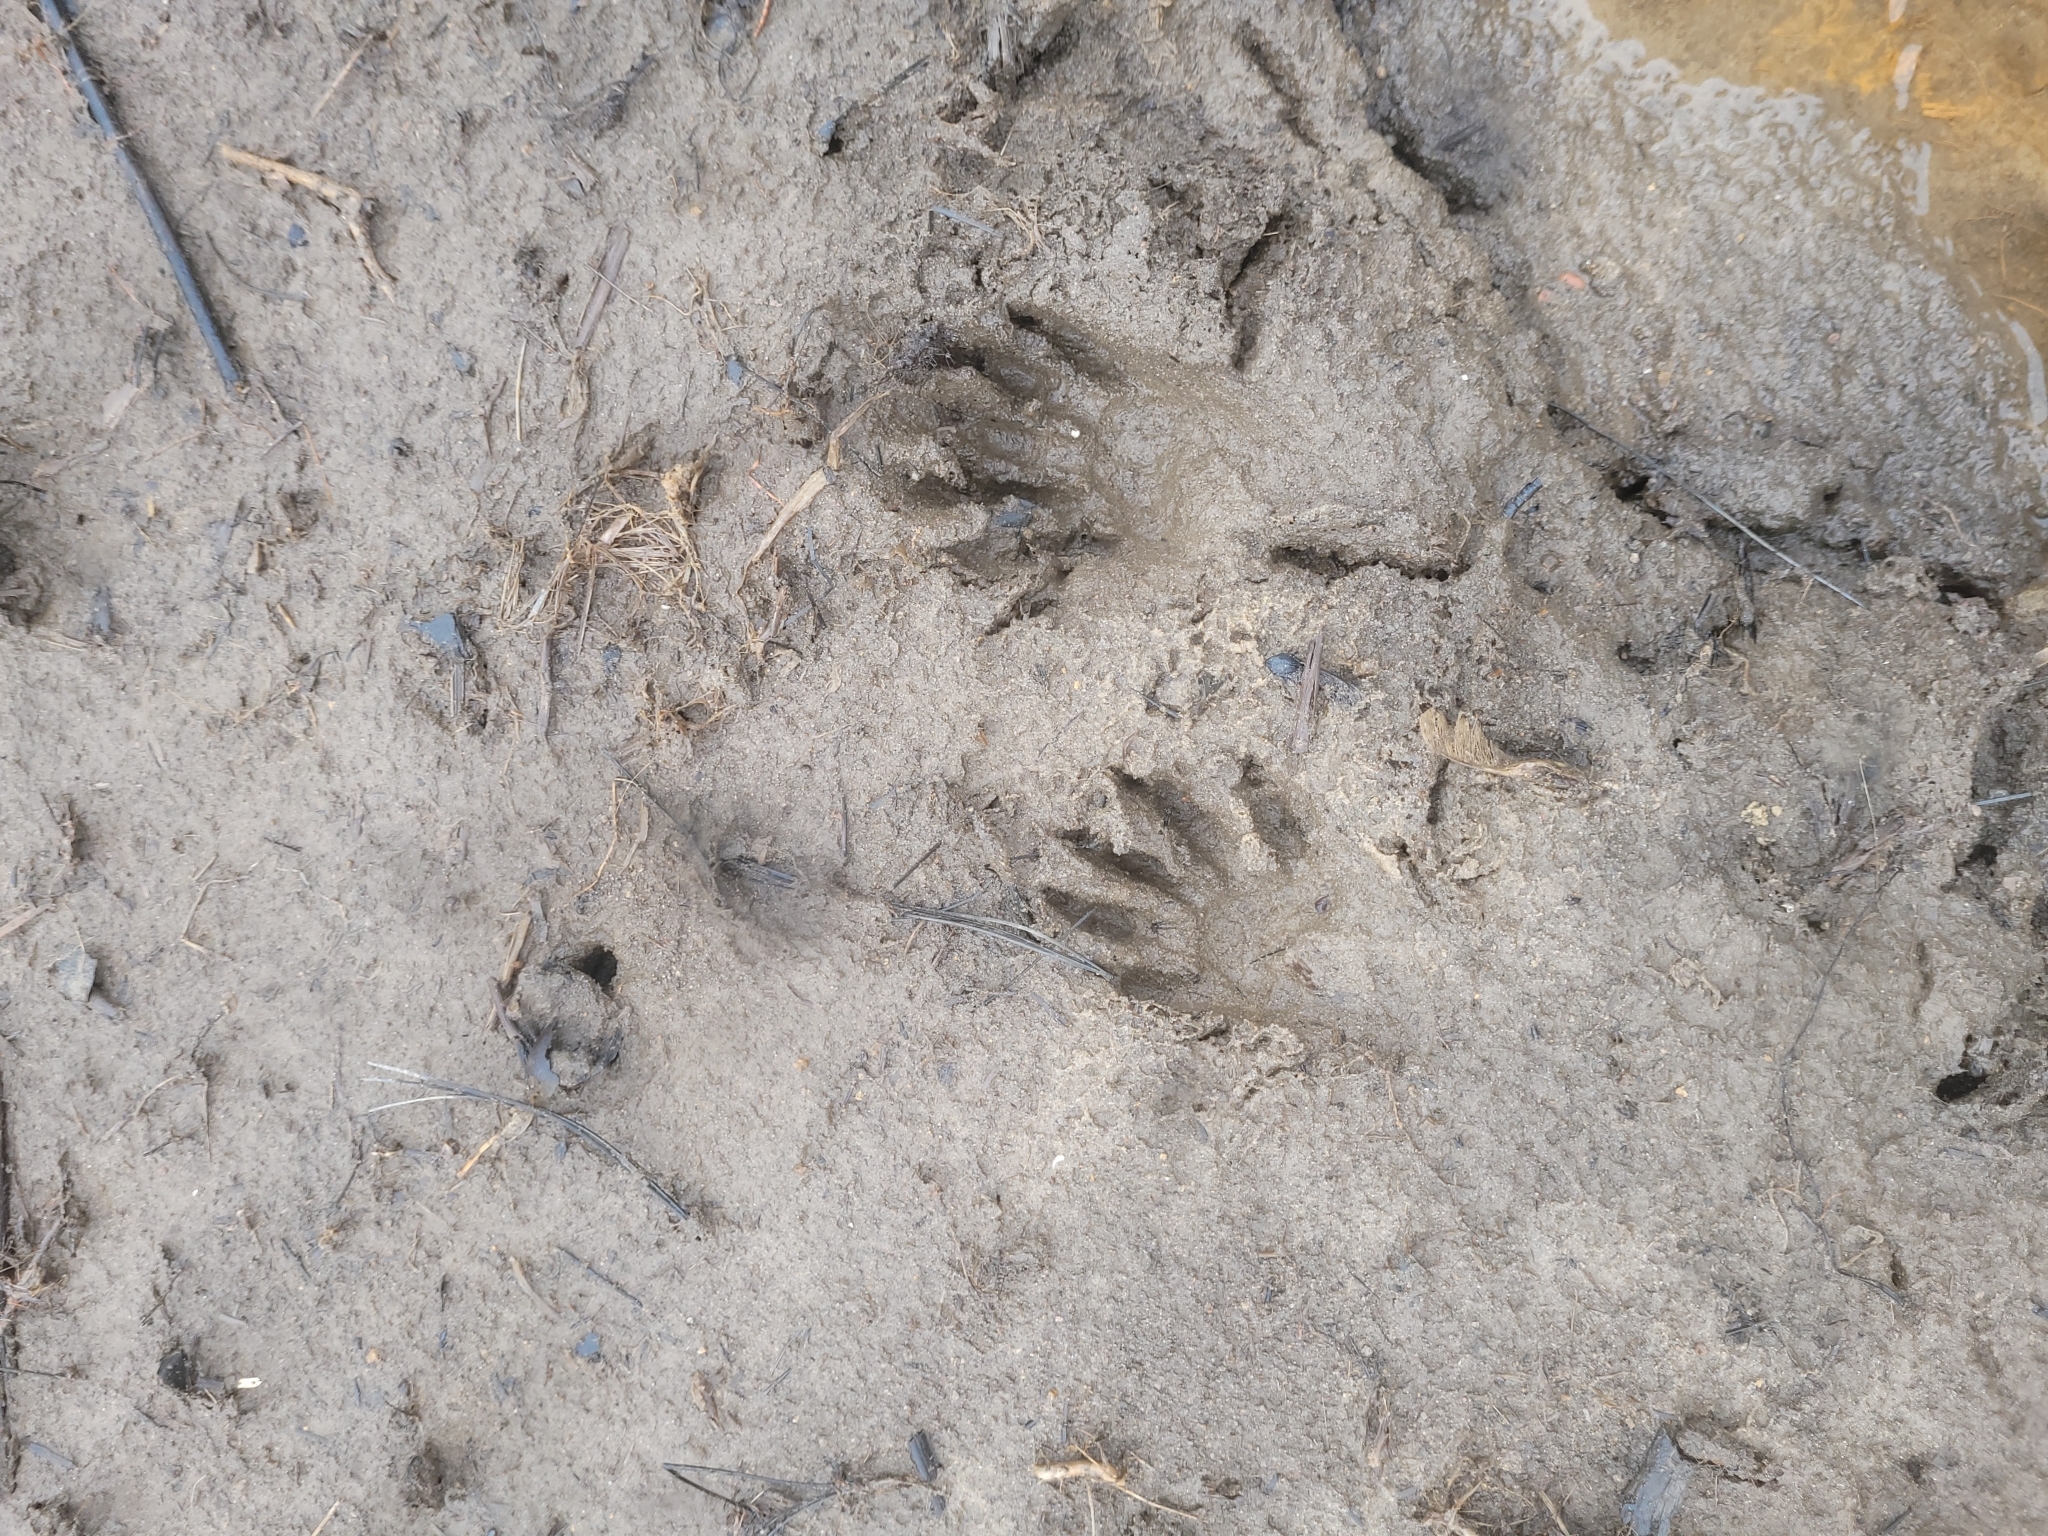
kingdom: Animalia
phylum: Chordata
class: Mammalia
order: Carnivora
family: Procyonidae
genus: Procyon
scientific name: Procyon lotor
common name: Raccoon
